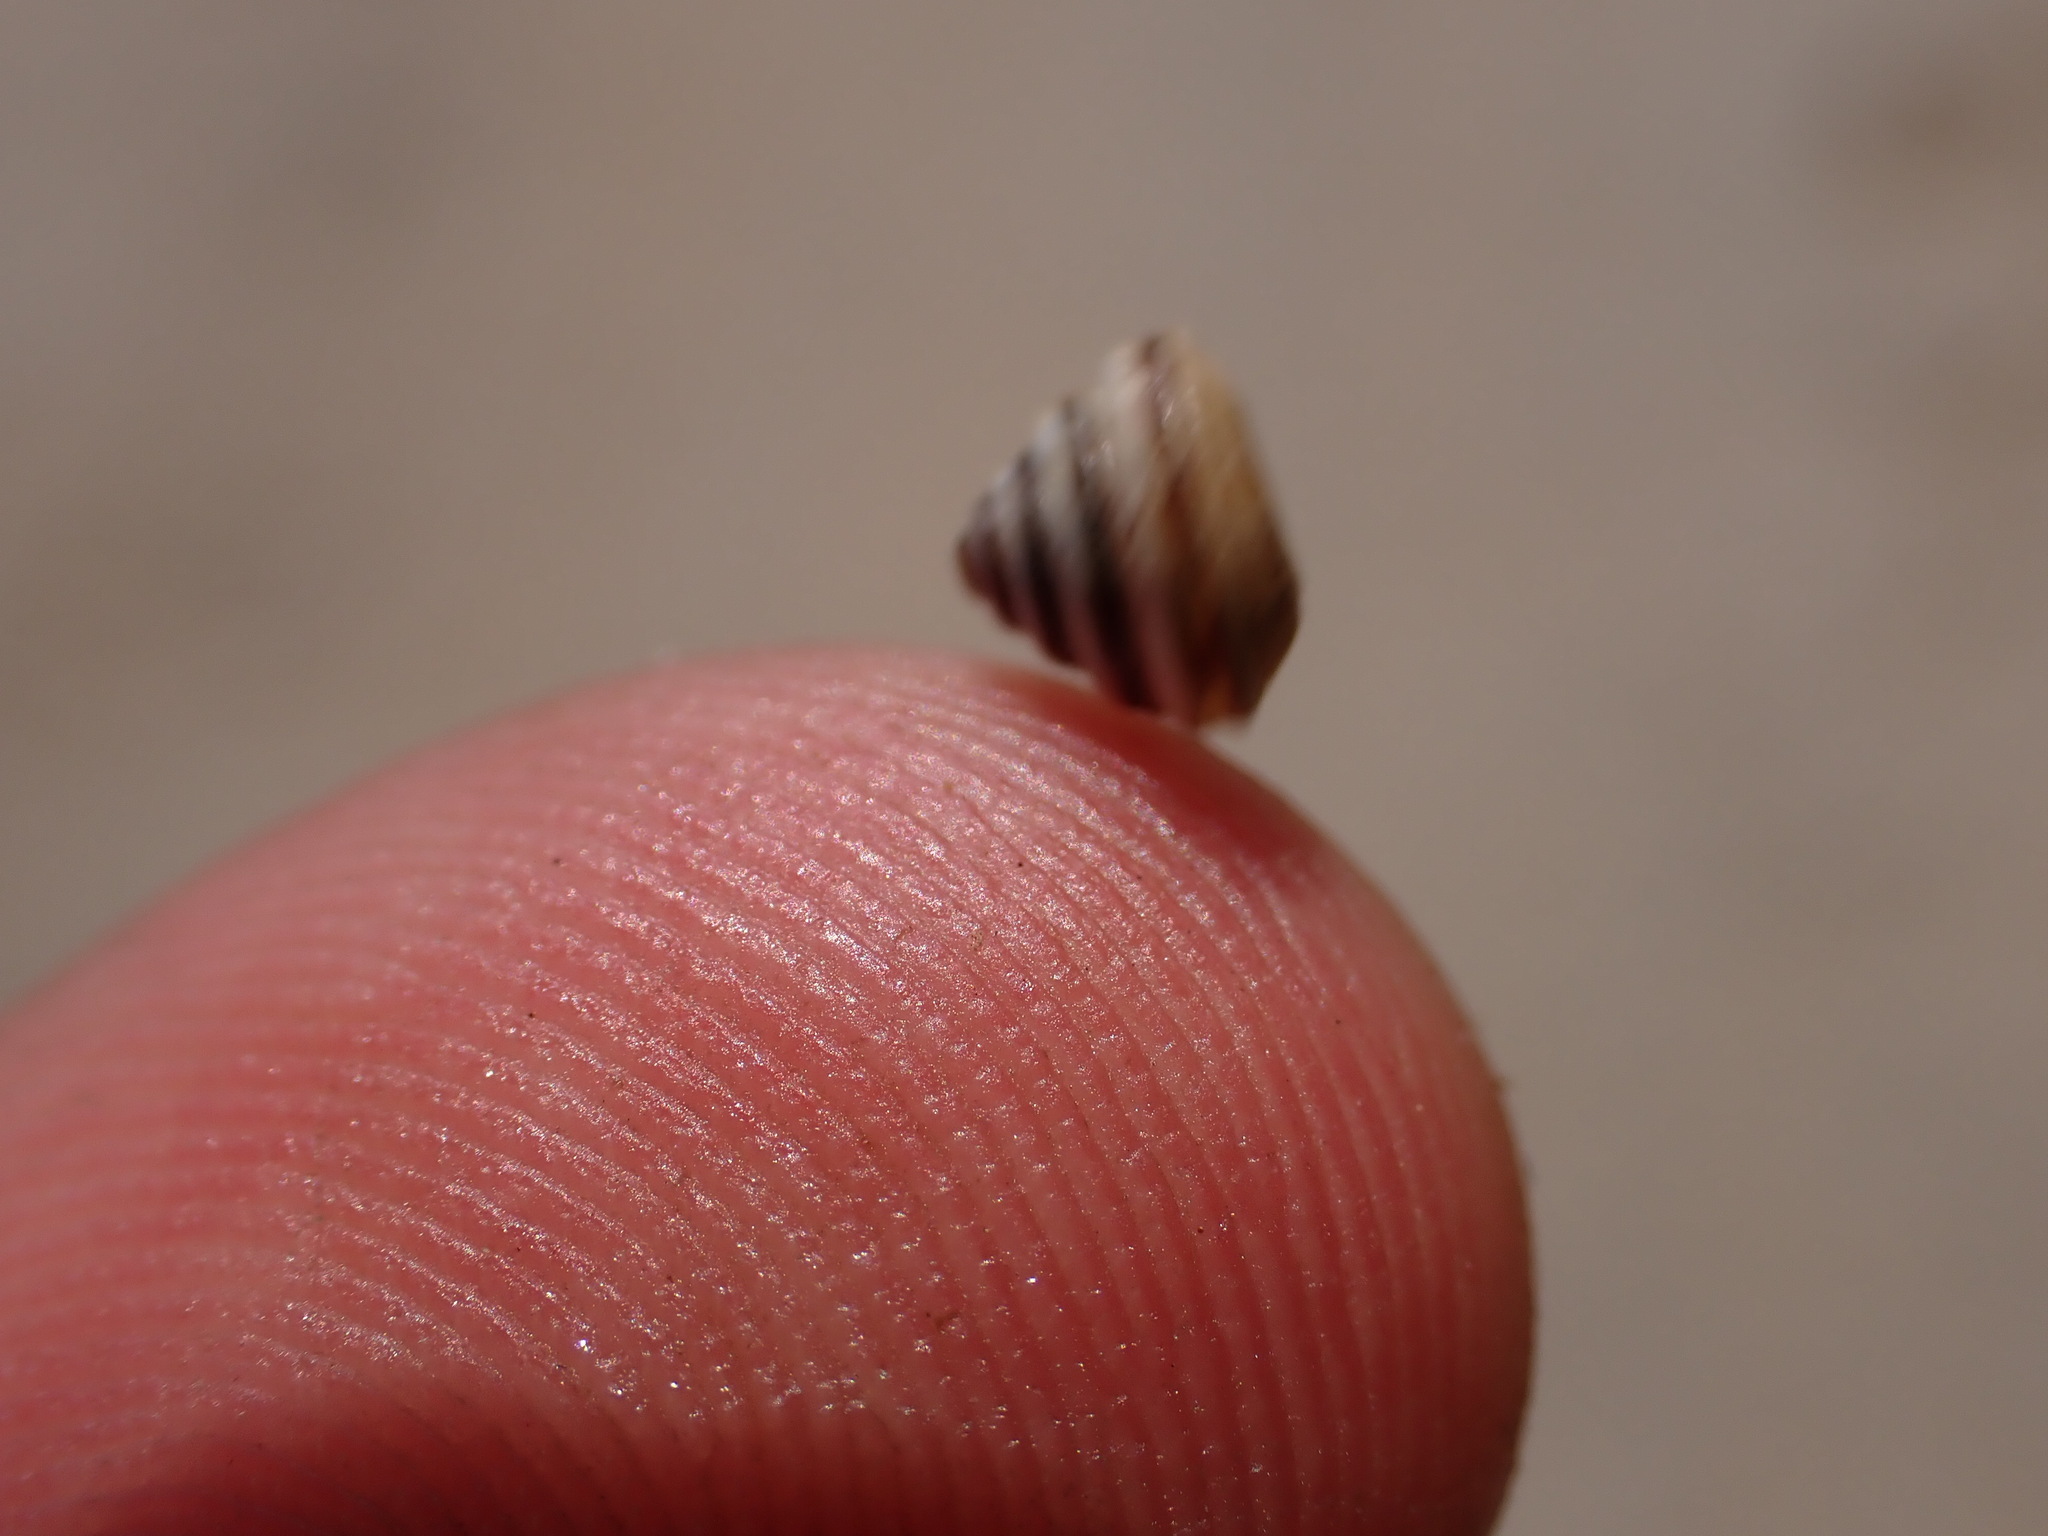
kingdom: Animalia
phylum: Mollusca
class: Gastropoda
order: Stylommatophora
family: Geomitridae
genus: Trochoidea
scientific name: Trochoidea trochoides
